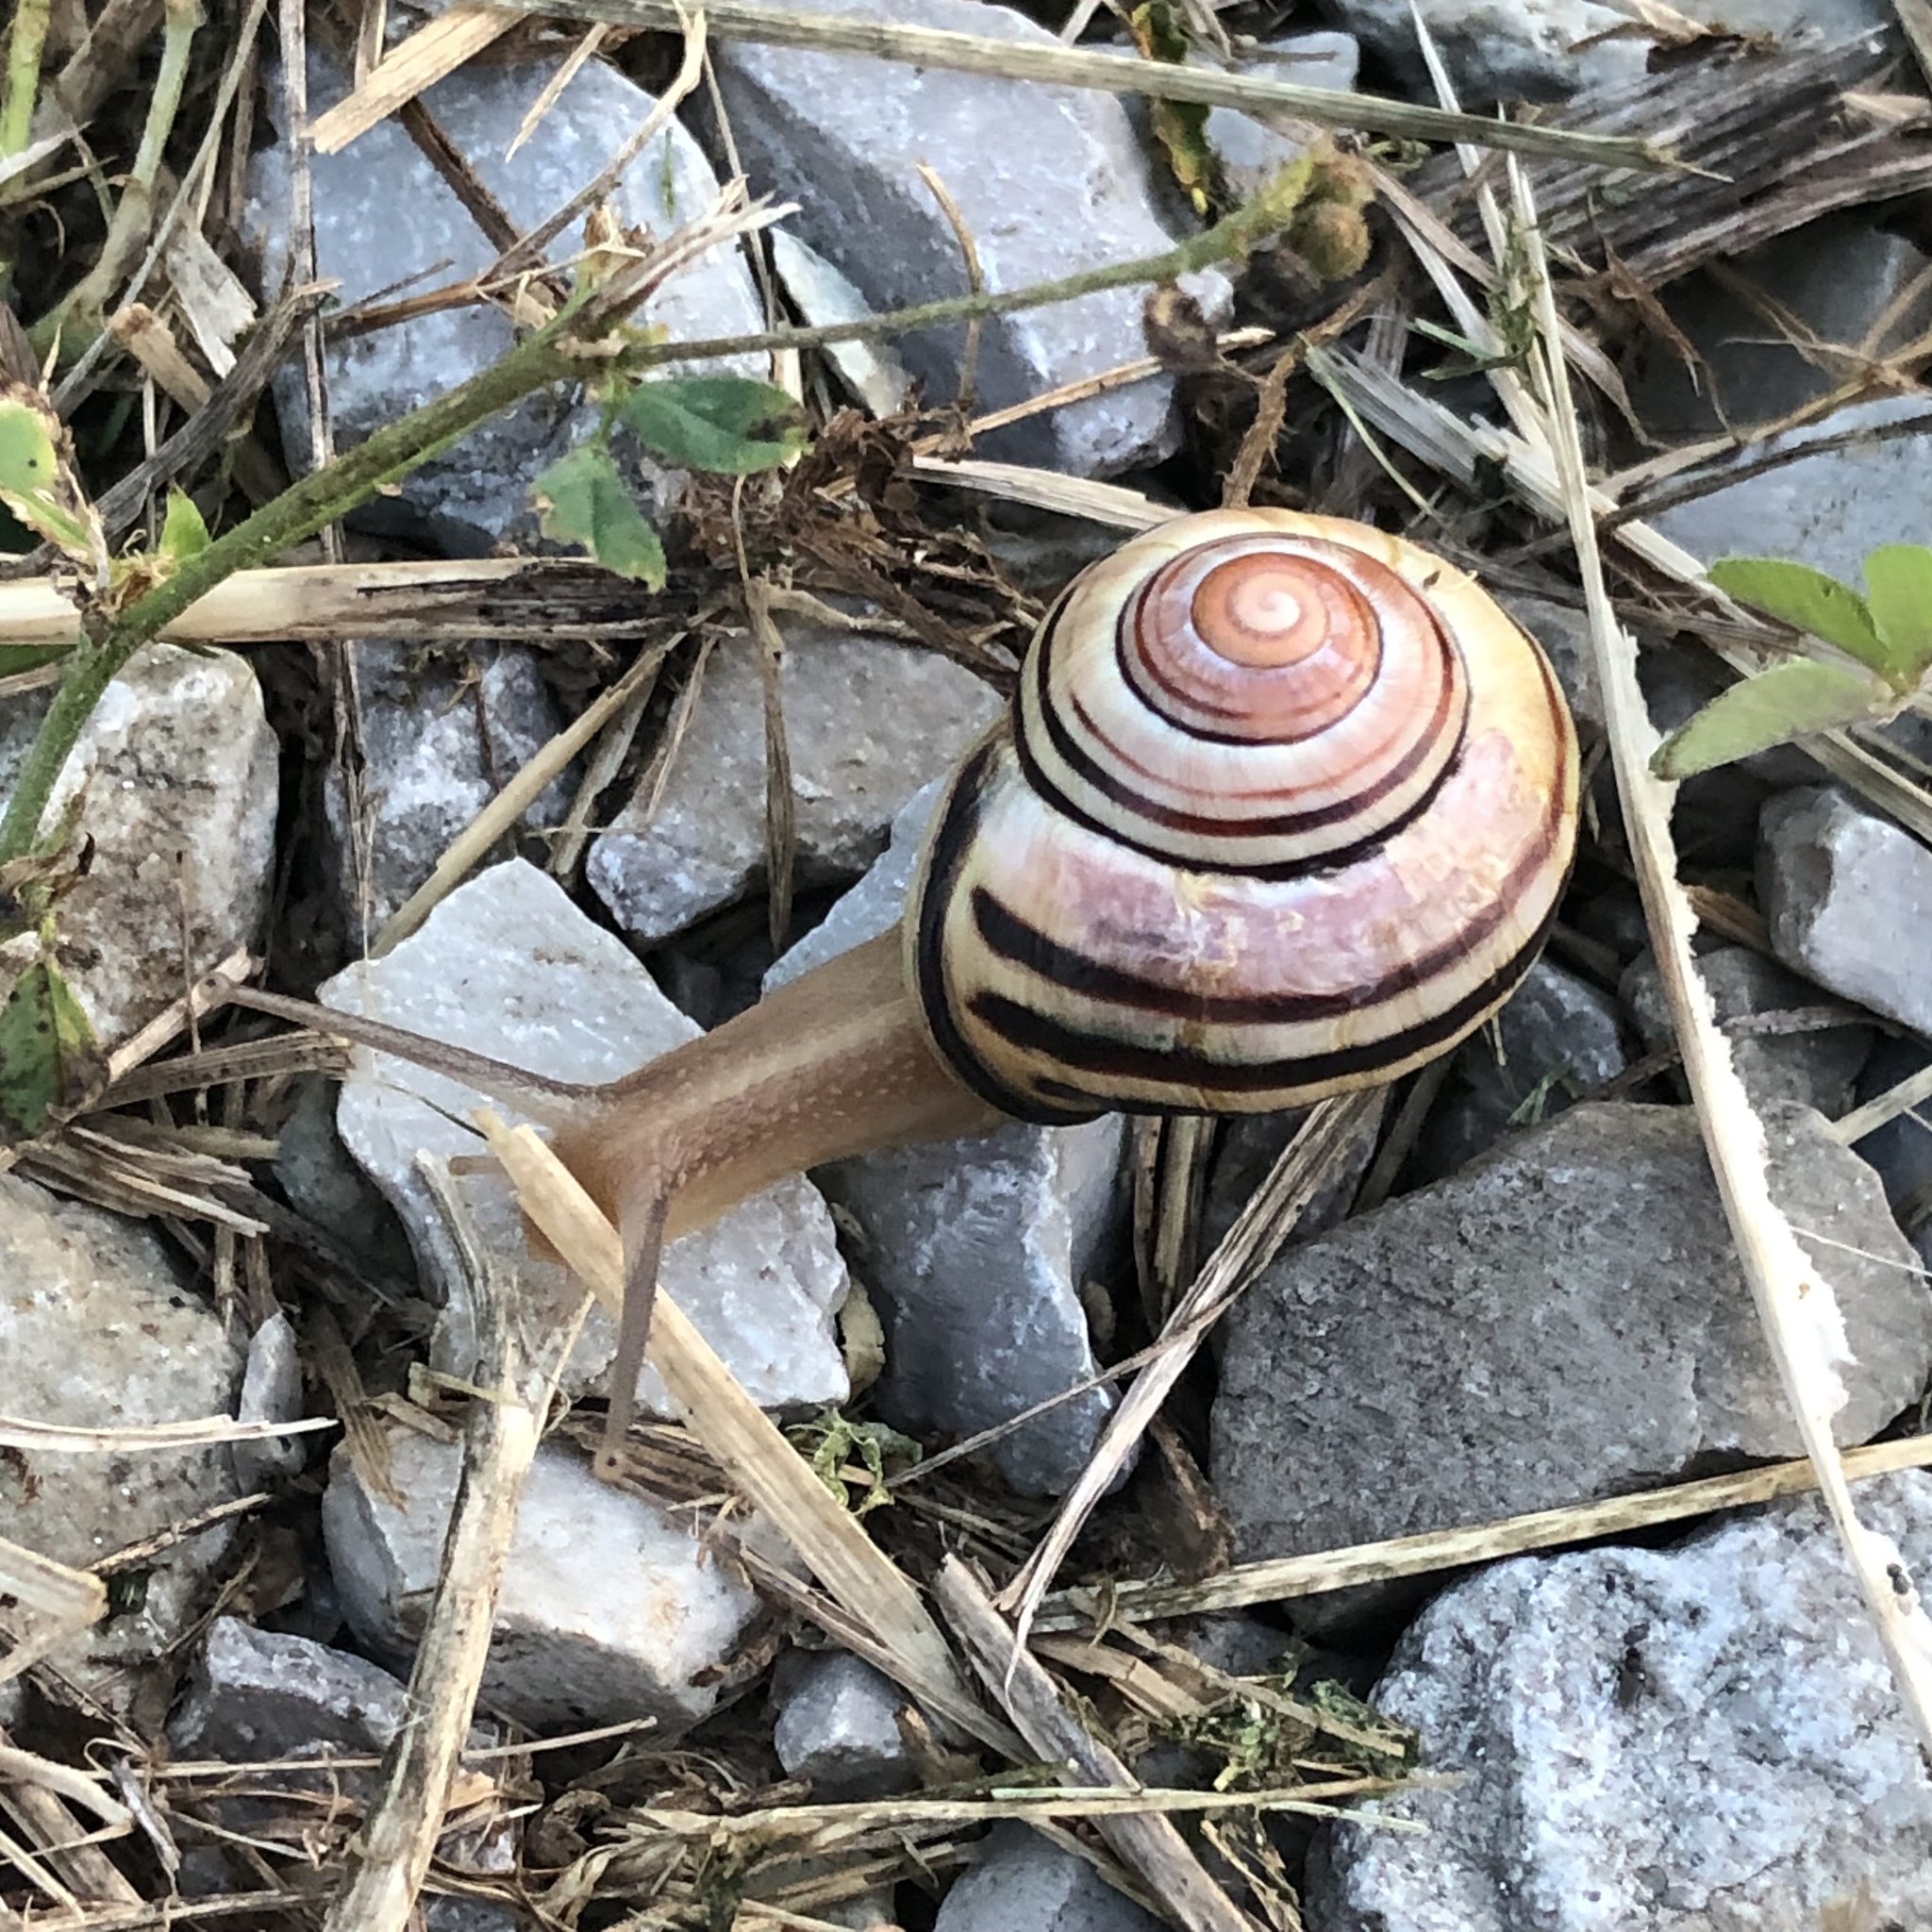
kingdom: Animalia
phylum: Mollusca
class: Gastropoda
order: Stylommatophora
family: Helicidae
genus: Cepaea
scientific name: Cepaea nemoralis
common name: Grovesnail
